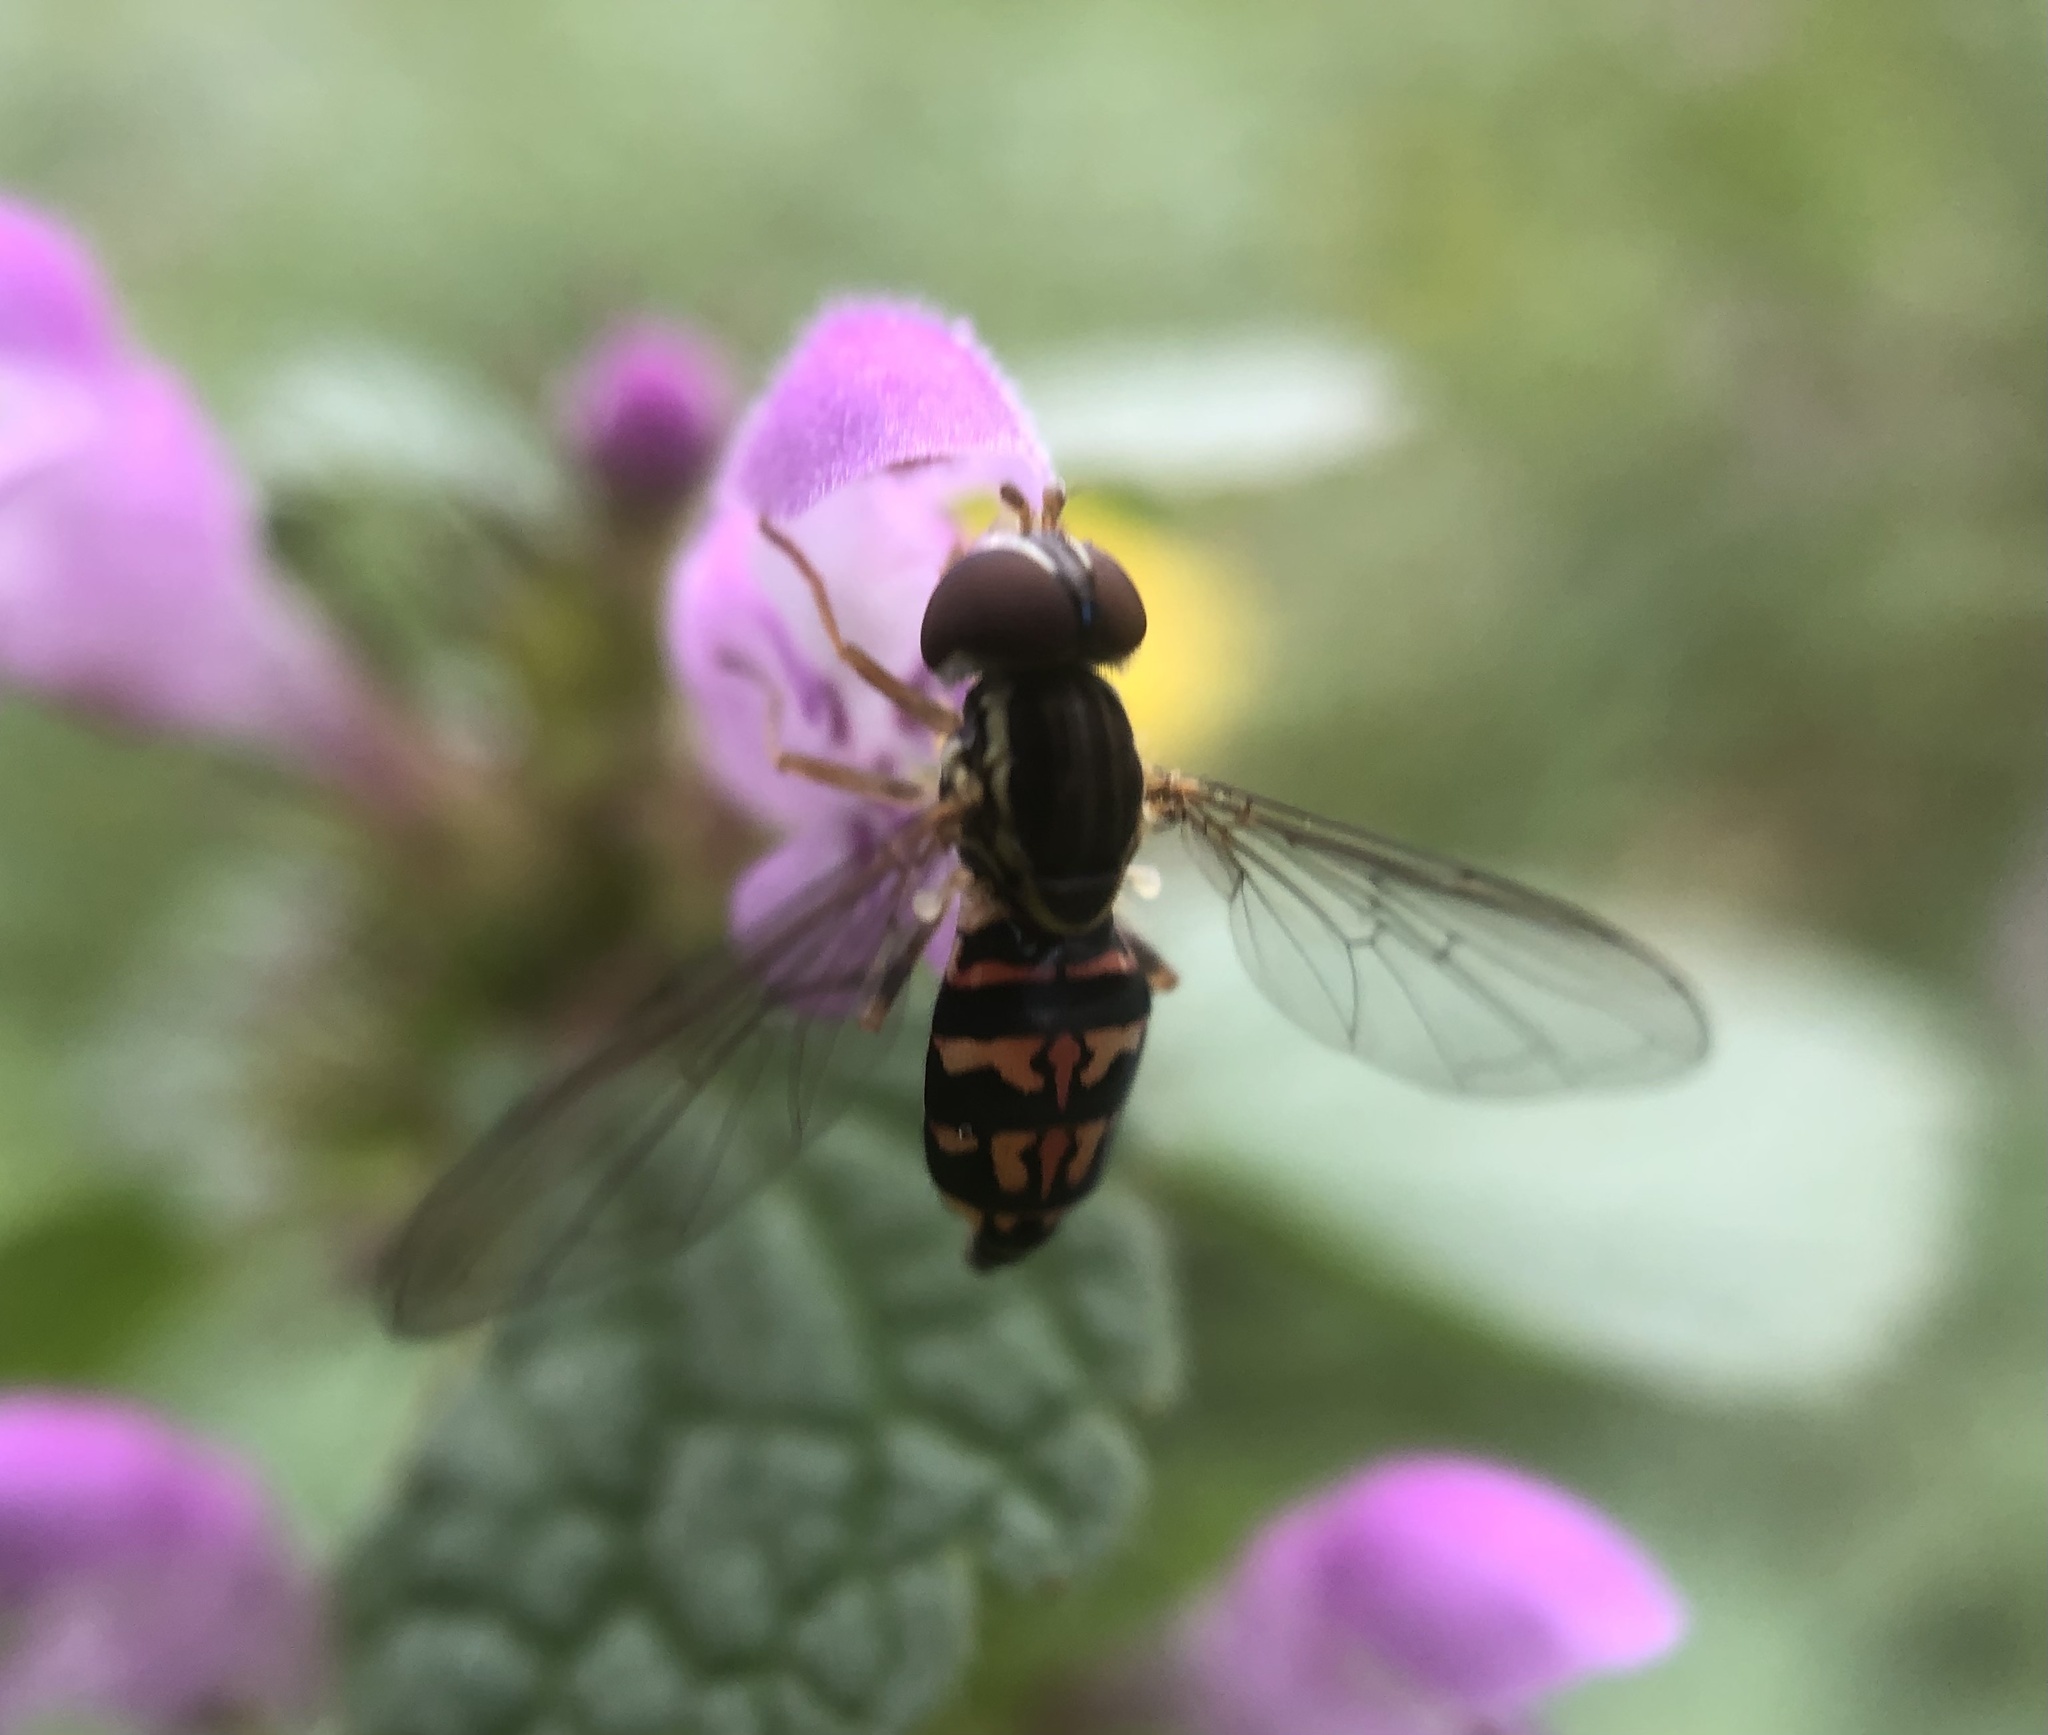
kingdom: Animalia
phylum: Arthropoda
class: Insecta
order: Diptera
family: Syrphidae
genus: Toxomerus
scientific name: Toxomerus geminatus
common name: Eastern calligrapher
